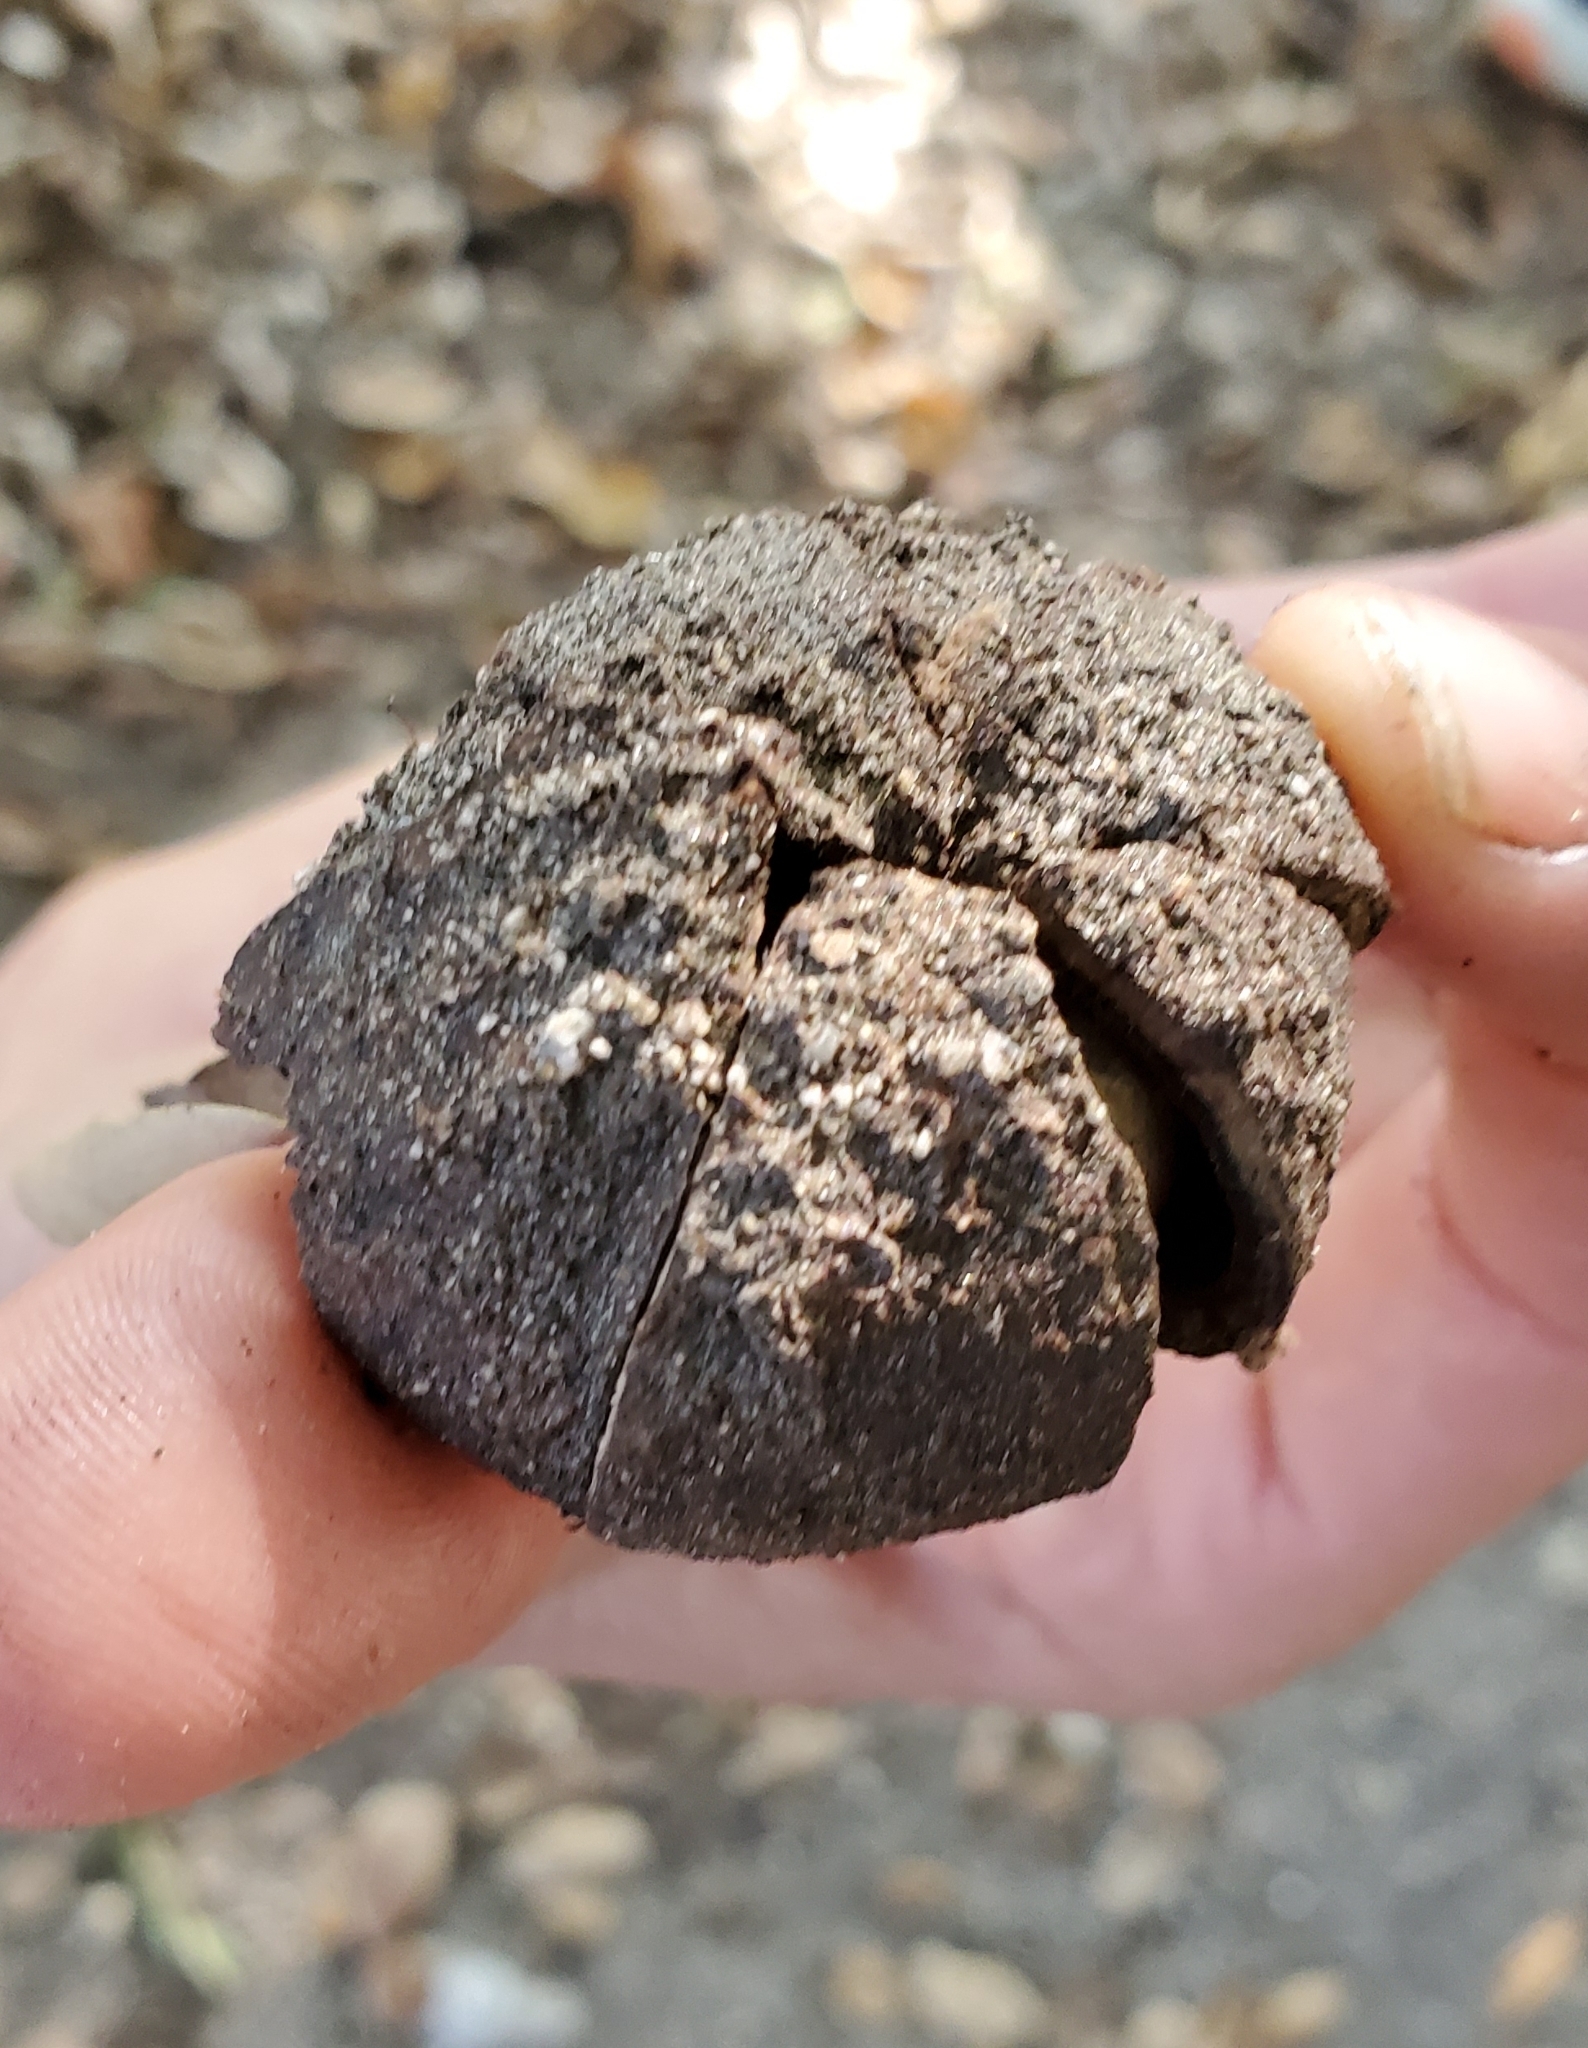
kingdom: Fungi
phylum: Basidiomycota
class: Agaricomycetes
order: Boletales
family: Diplocystidiaceae
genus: Astraeus
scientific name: Astraeus
